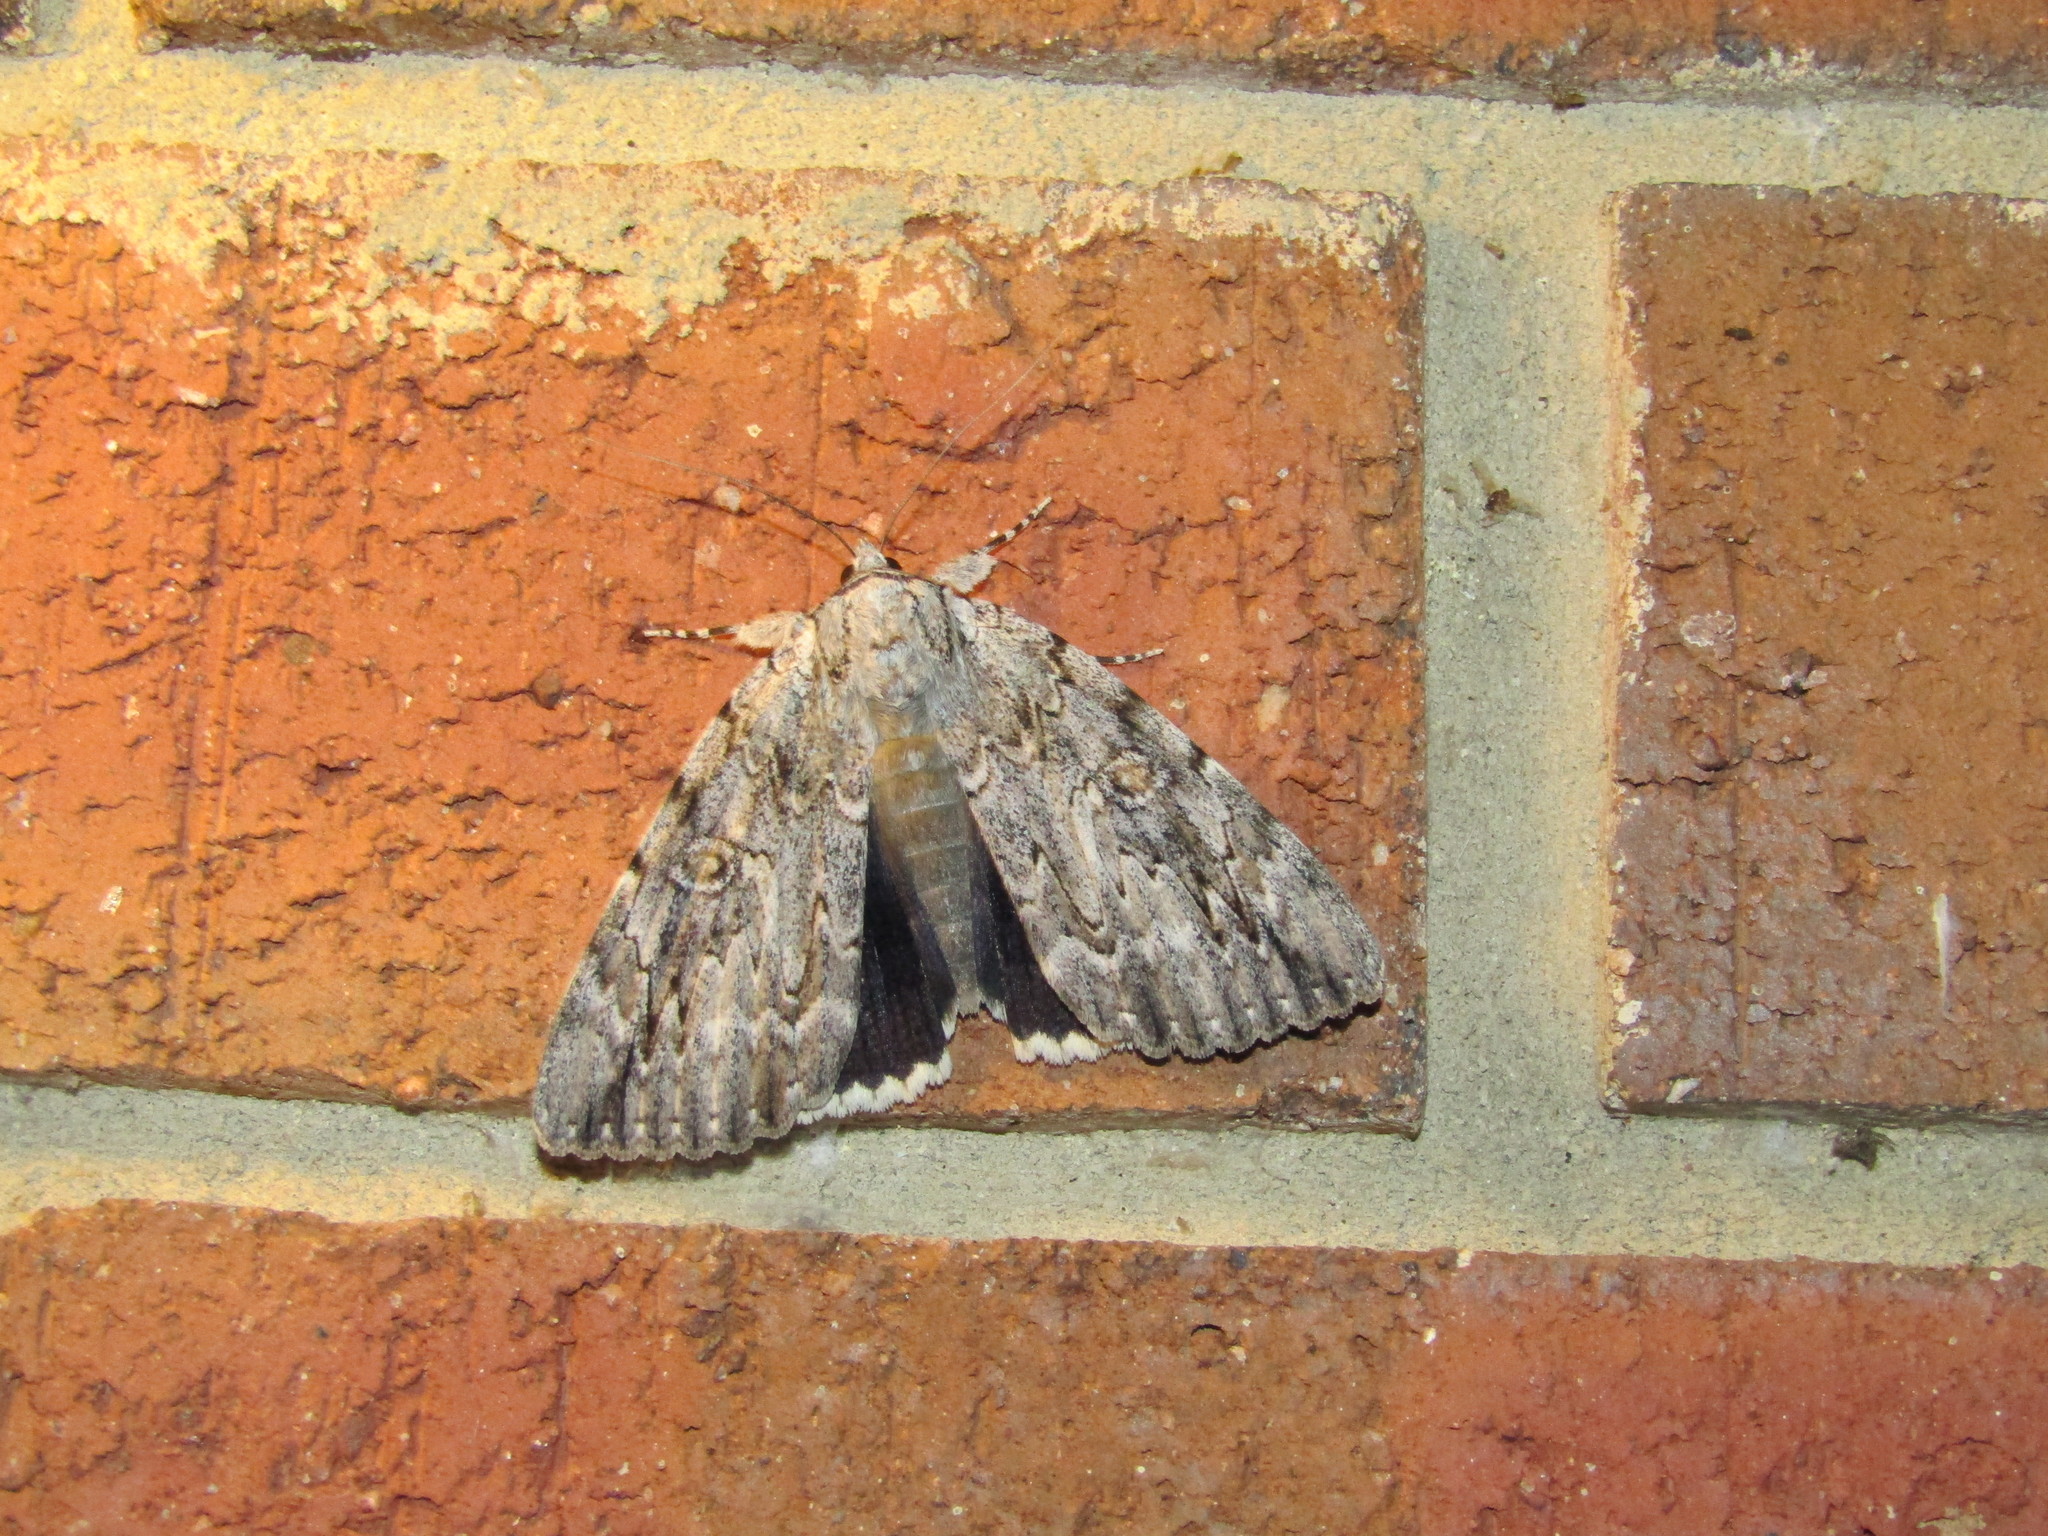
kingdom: Animalia
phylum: Arthropoda
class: Insecta
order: Lepidoptera
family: Erebidae
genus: Catocala
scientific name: Catocala robinsoni
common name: Robinson's underwing
